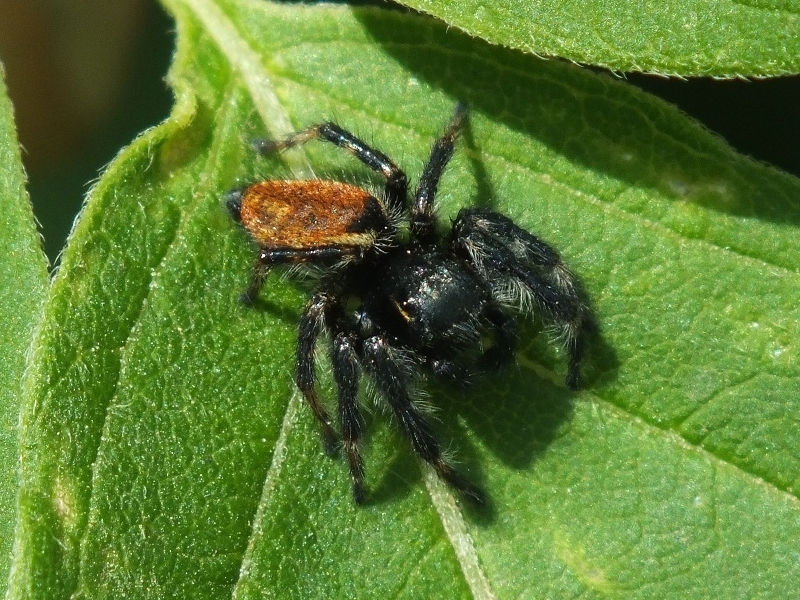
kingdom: Animalia
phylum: Arthropoda
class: Arachnida
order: Araneae
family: Salticidae
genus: Carrhotus
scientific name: Carrhotus xanthogramma
